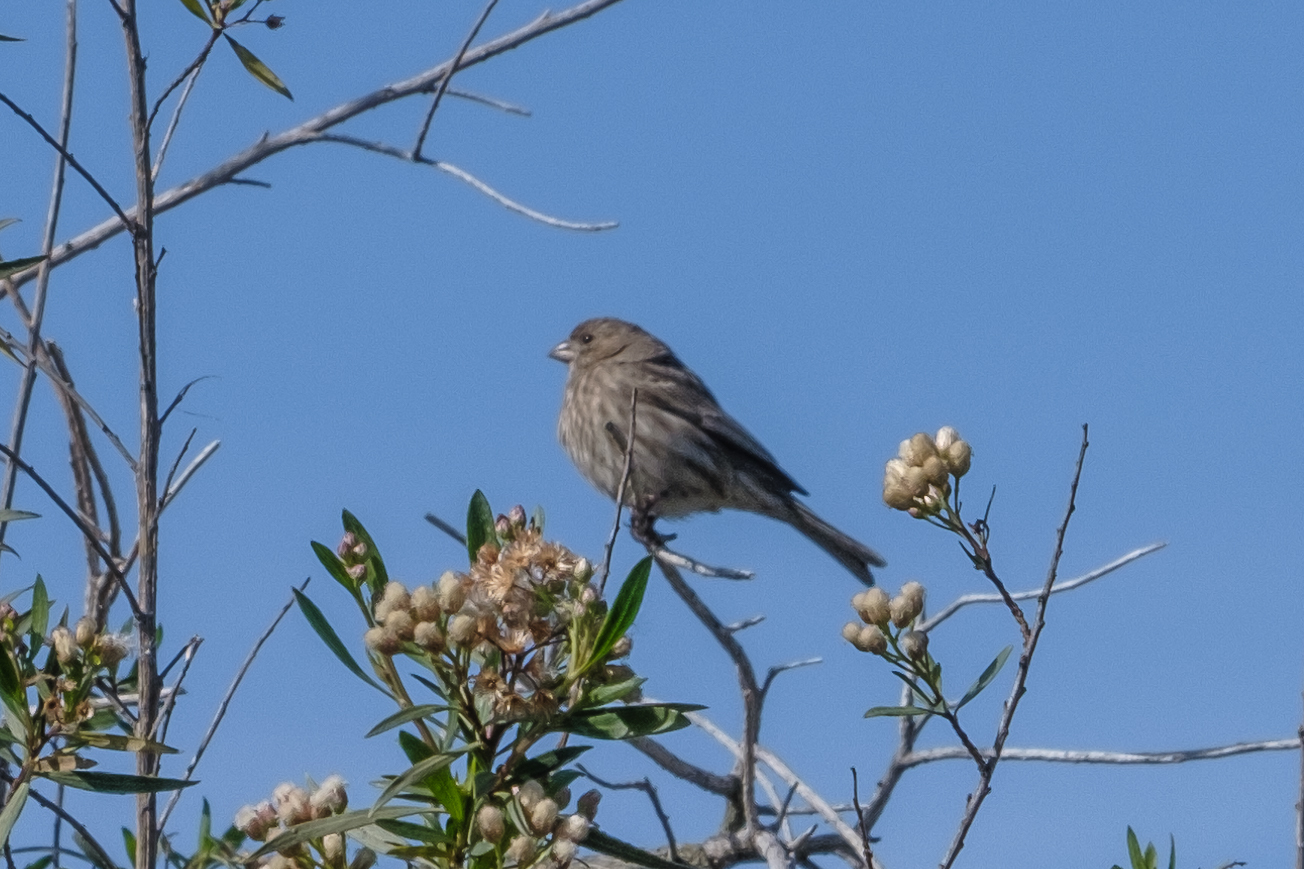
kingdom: Animalia
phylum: Chordata
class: Aves
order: Passeriformes
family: Fringillidae
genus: Haemorhous
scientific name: Haemorhous mexicanus
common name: House finch
